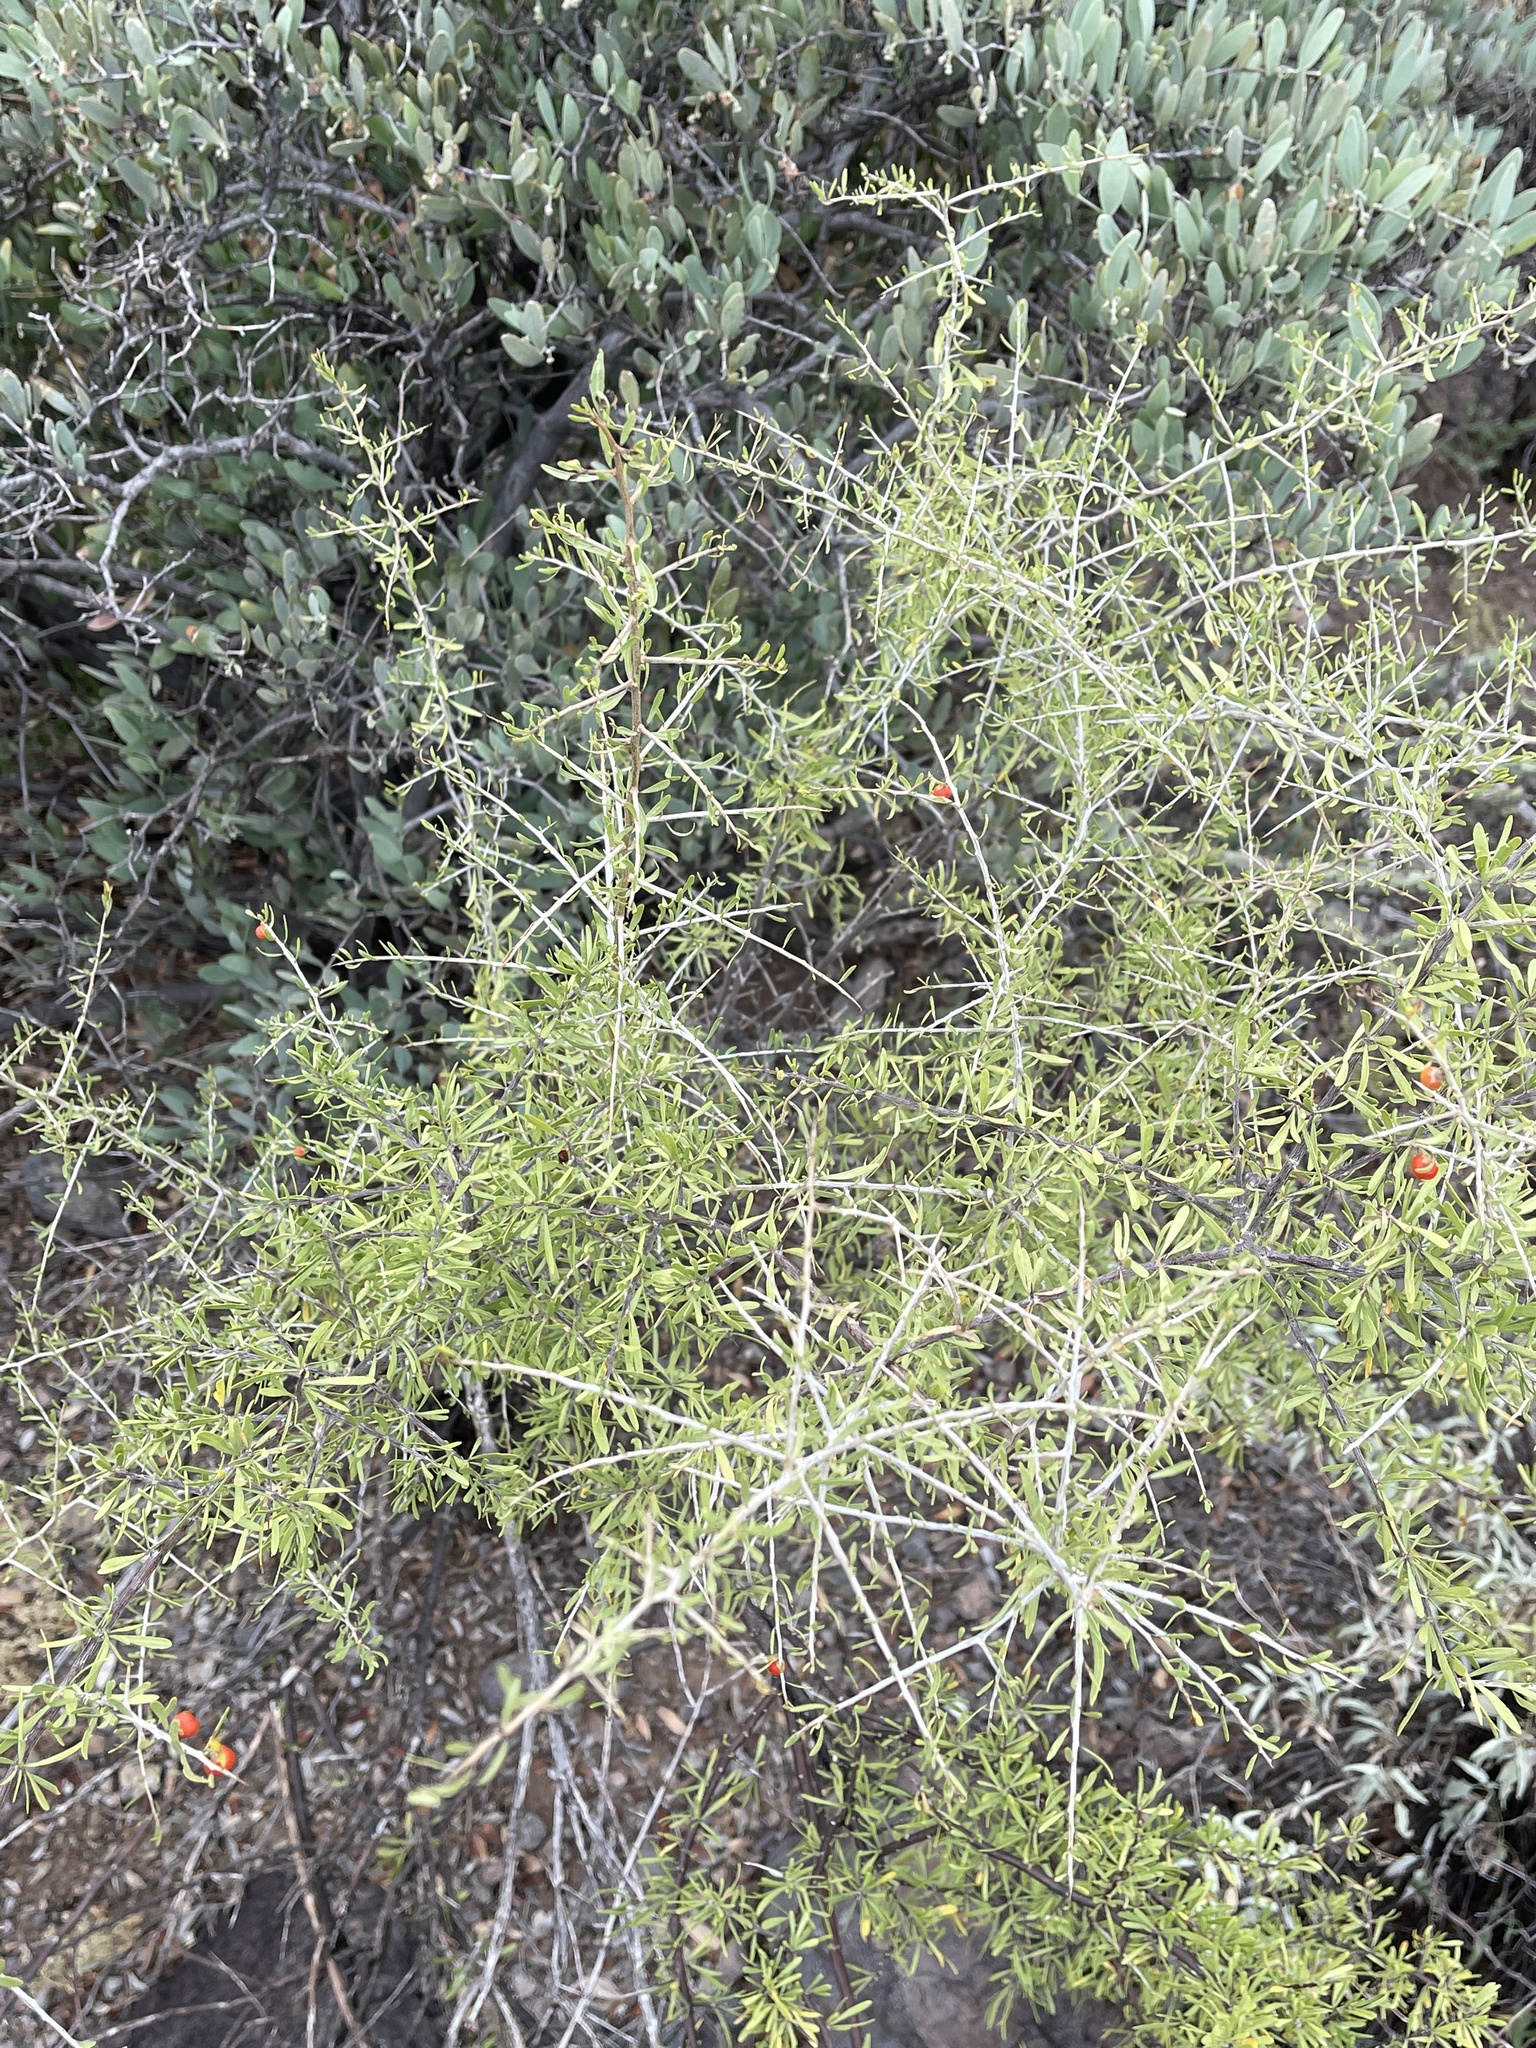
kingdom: Plantae
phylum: Tracheophyta
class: Magnoliopsida
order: Solanales
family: Solanaceae
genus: Lycium
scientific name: Lycium berlandieri
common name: Berlandier wolfberry
